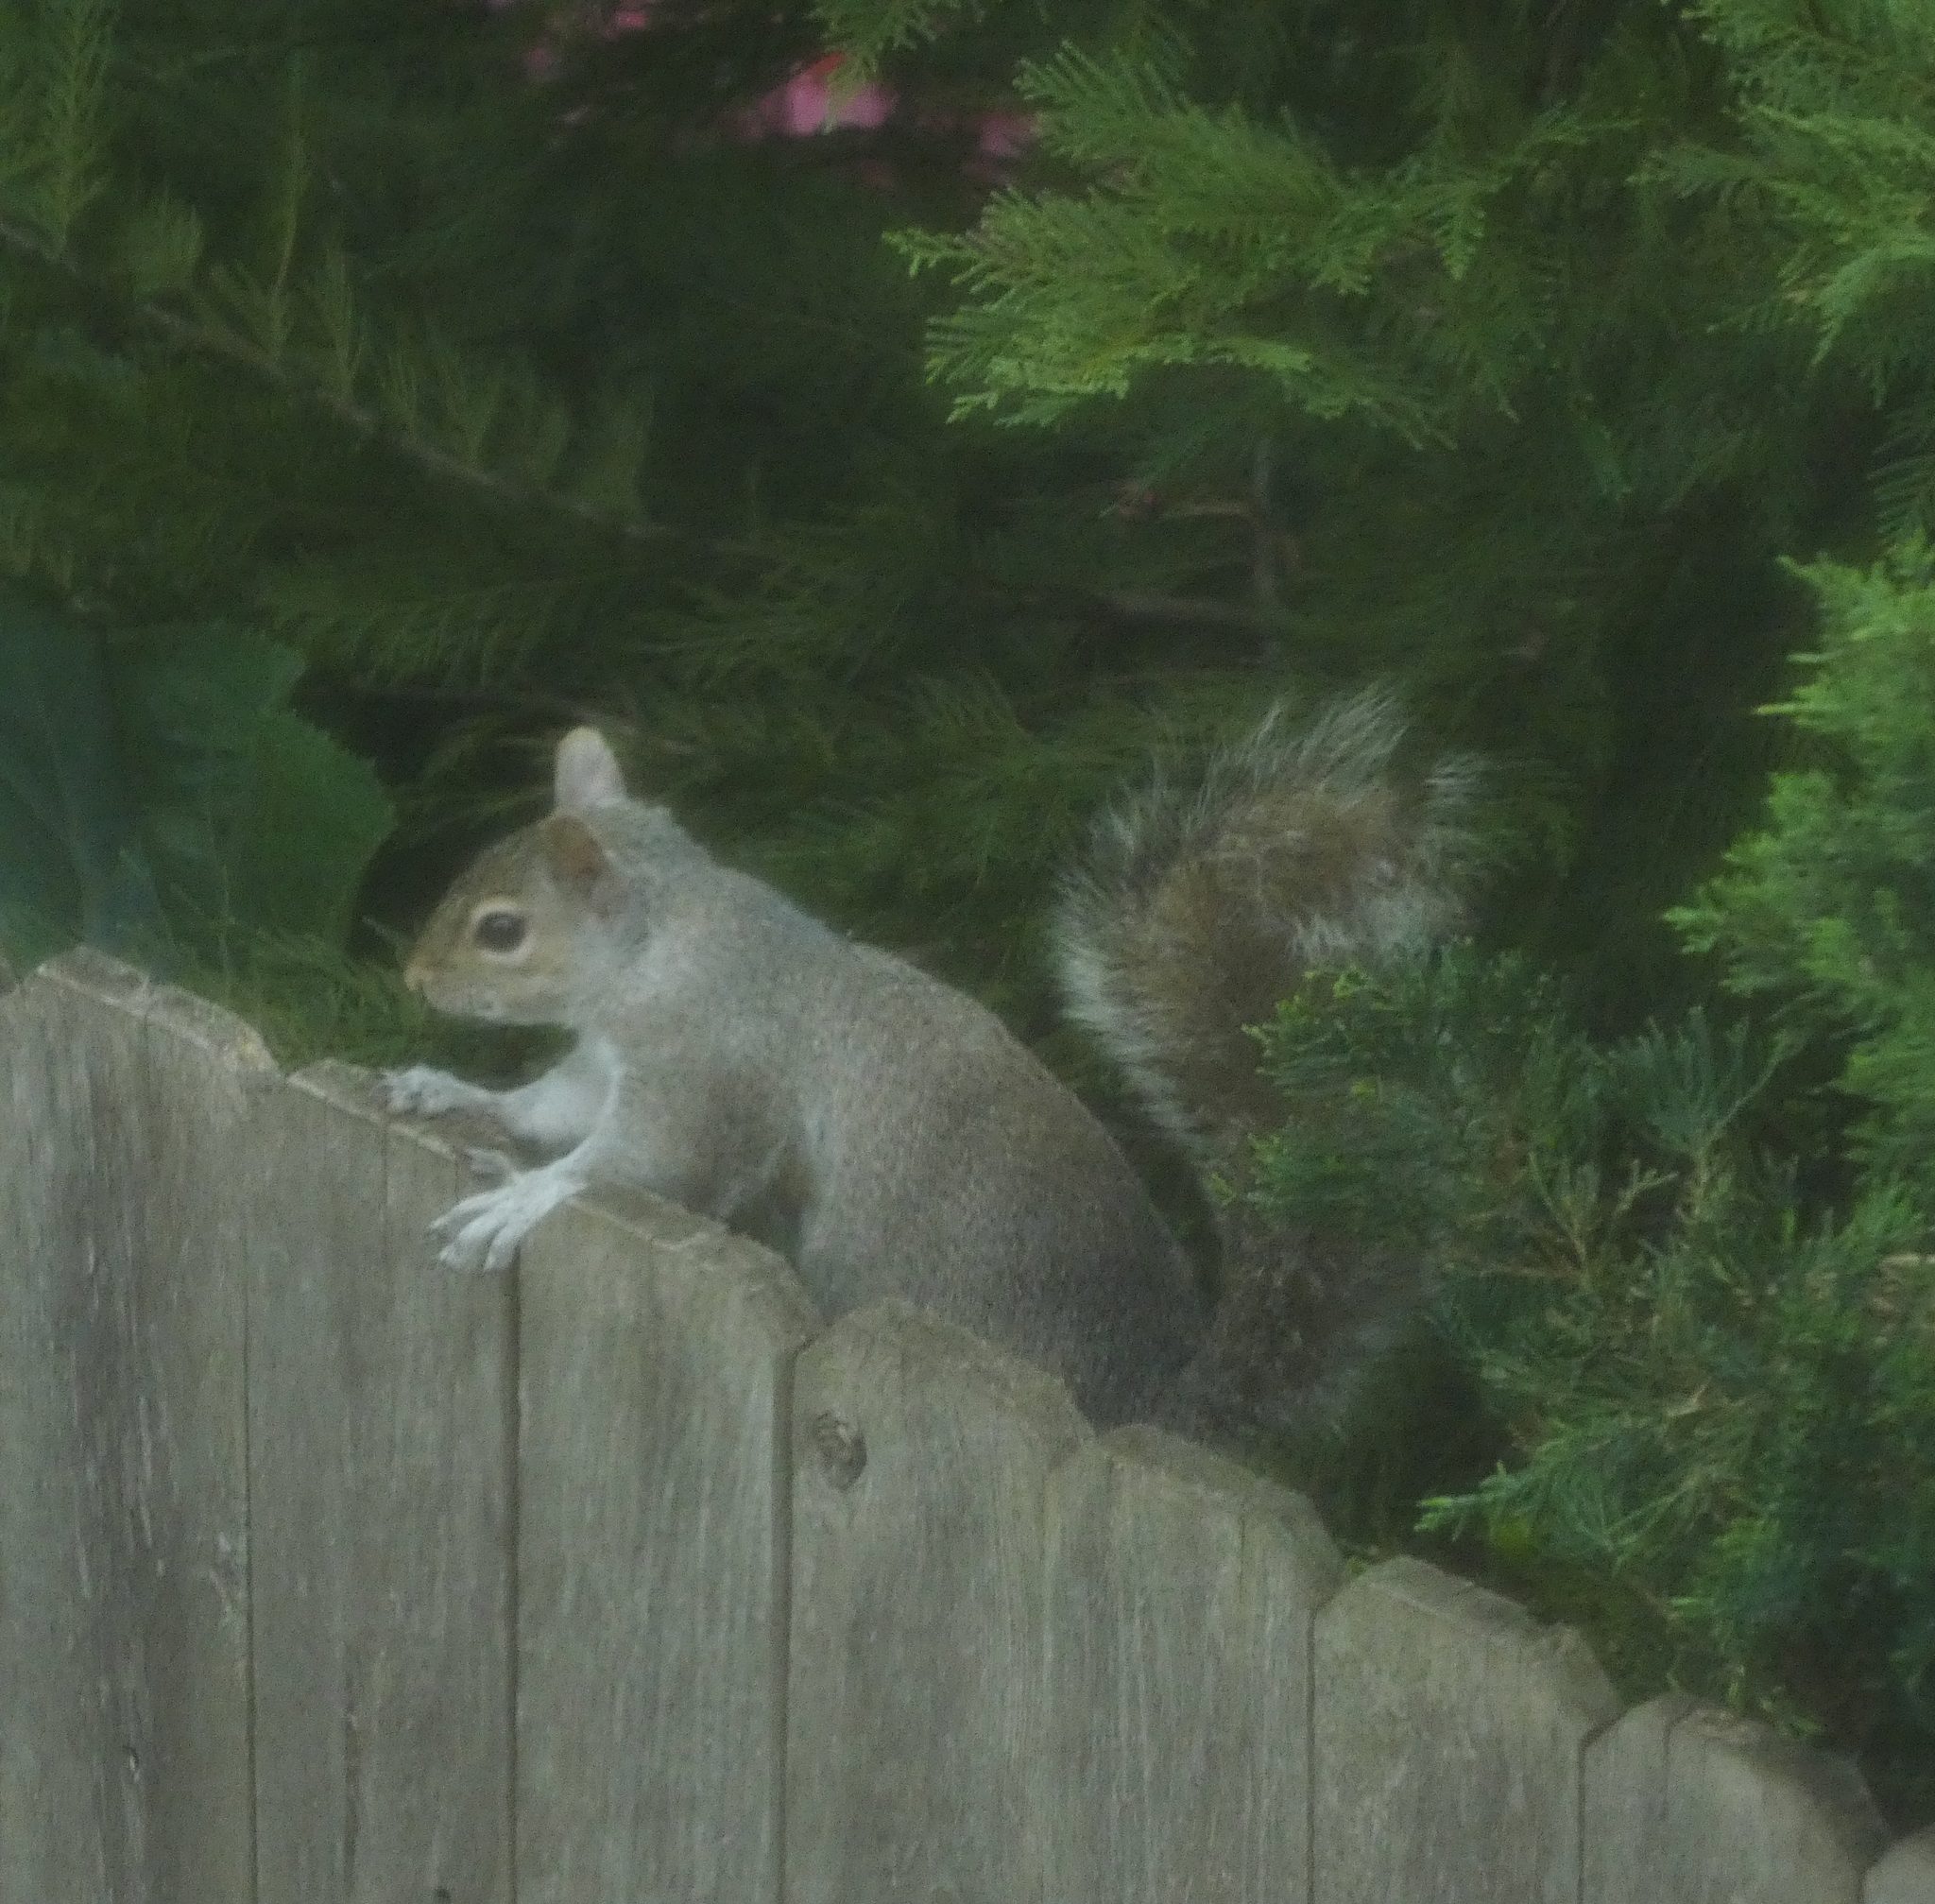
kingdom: Animalia
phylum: Chordata
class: Mammalia
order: Rodentia
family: Sciuridae
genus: Sciurus
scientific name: Sciurus carolinensis
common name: Eastern gray squirrel
